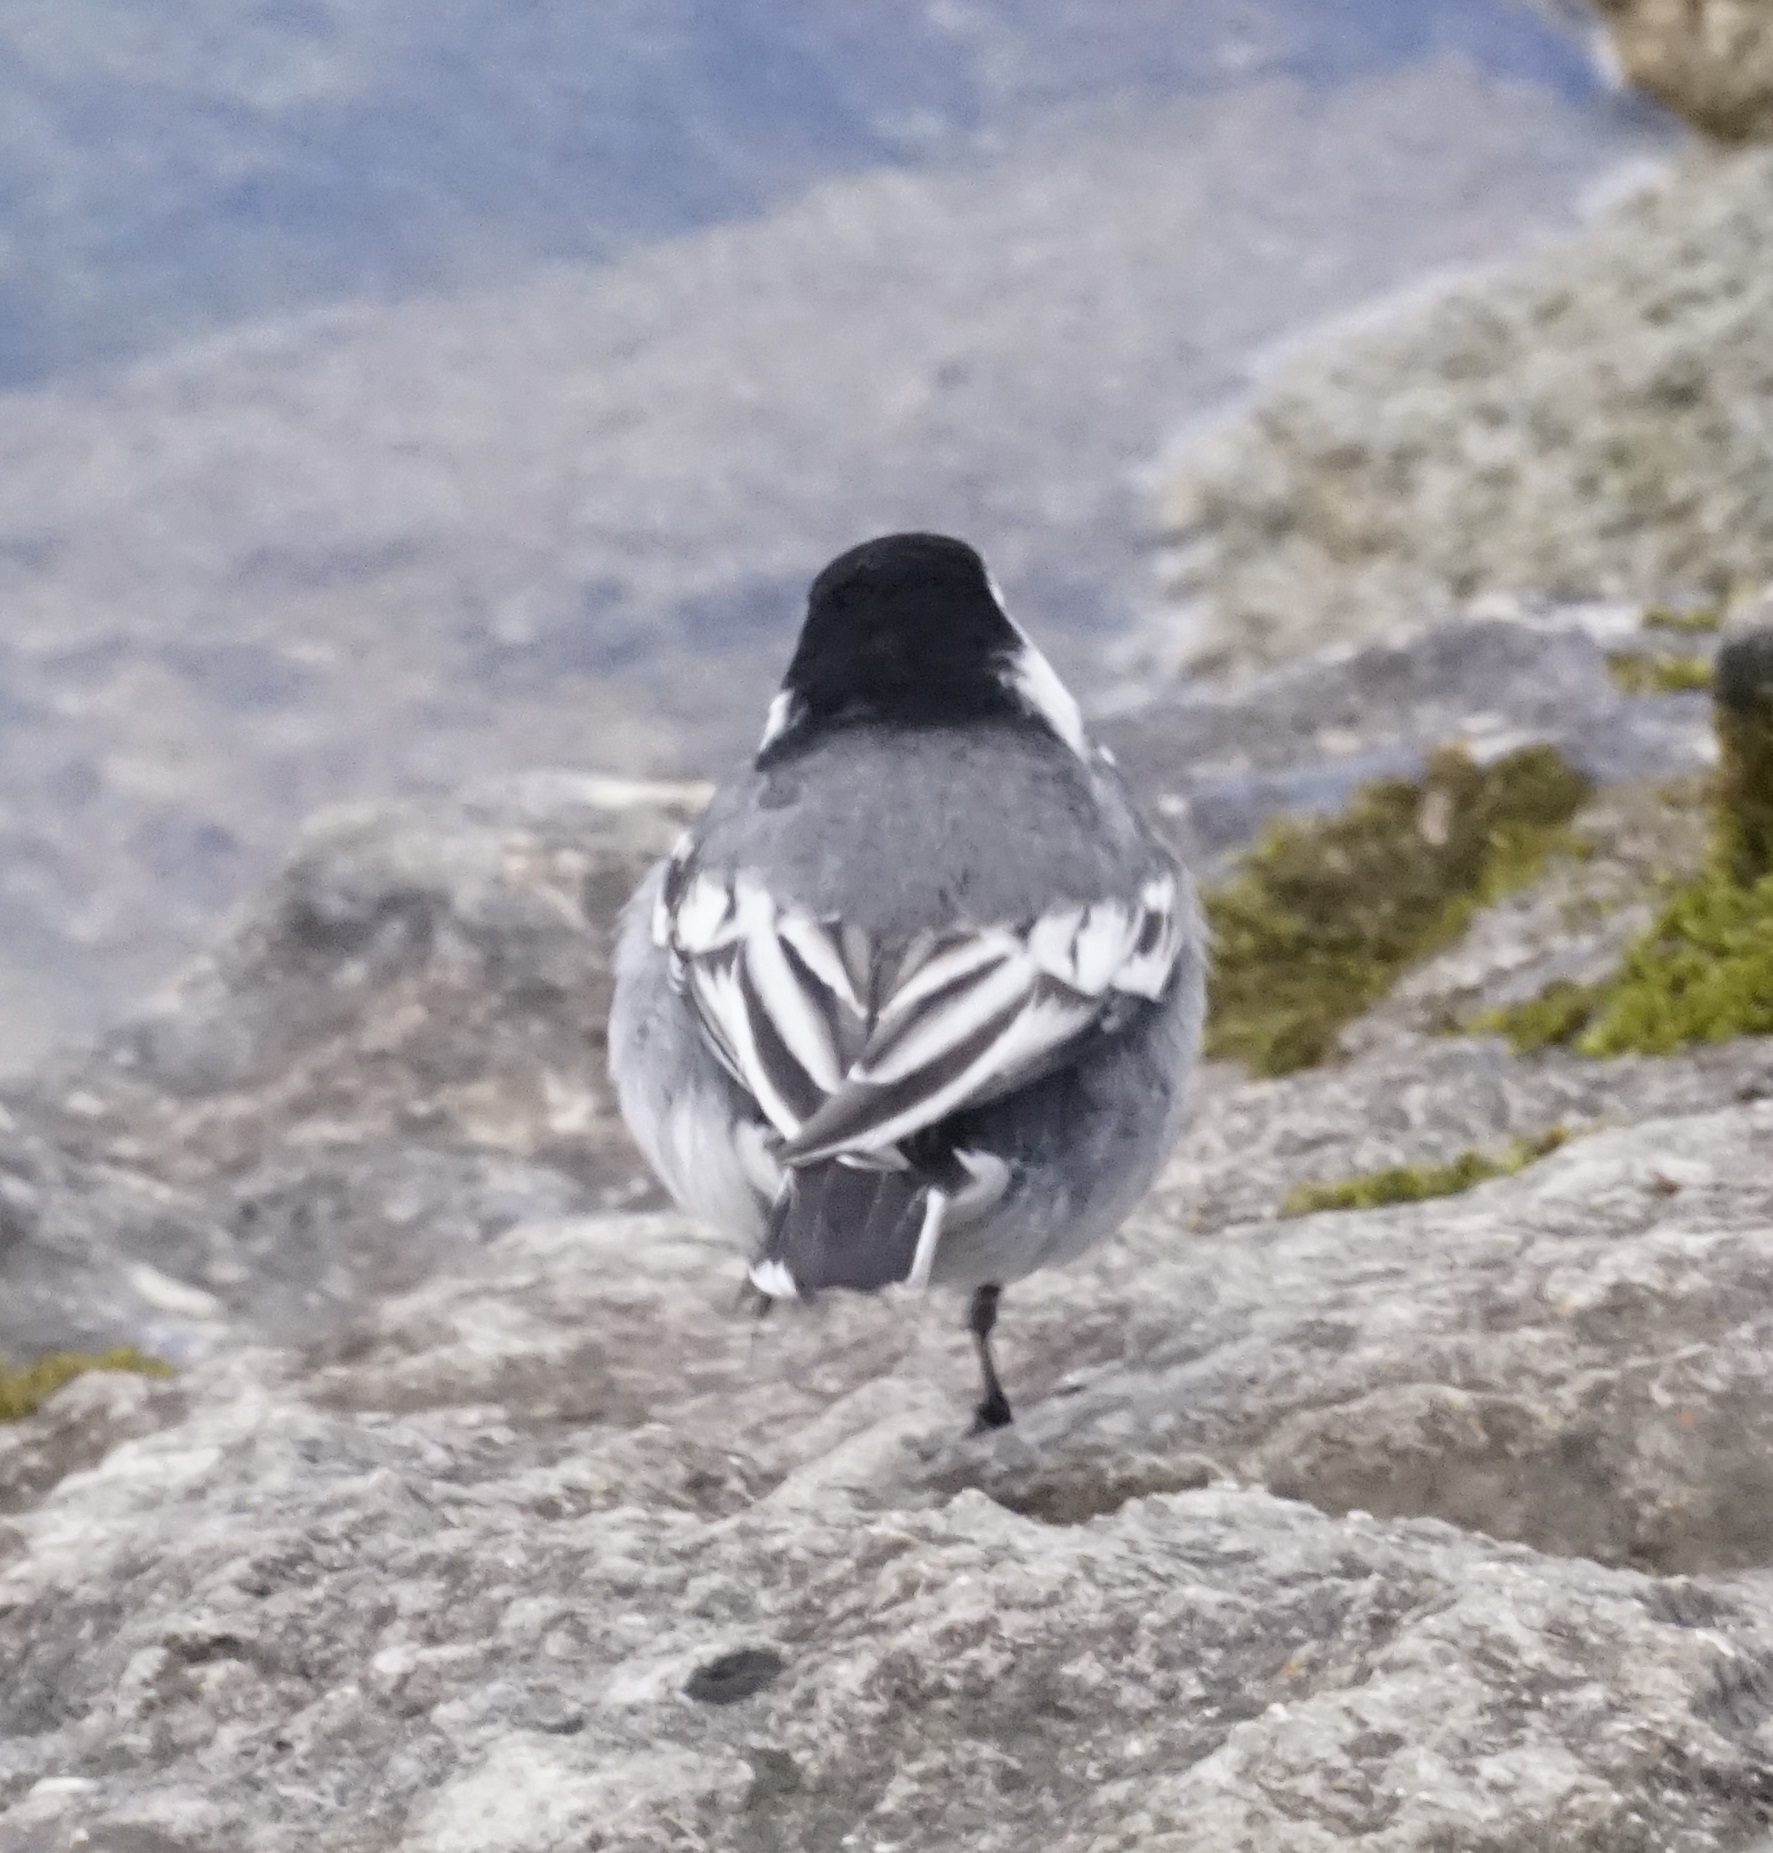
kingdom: Animalia
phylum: Chordata
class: Aves
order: Passeriformes
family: Motacillidae
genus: Motacilla
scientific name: Motacilla alba
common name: White wagtail
